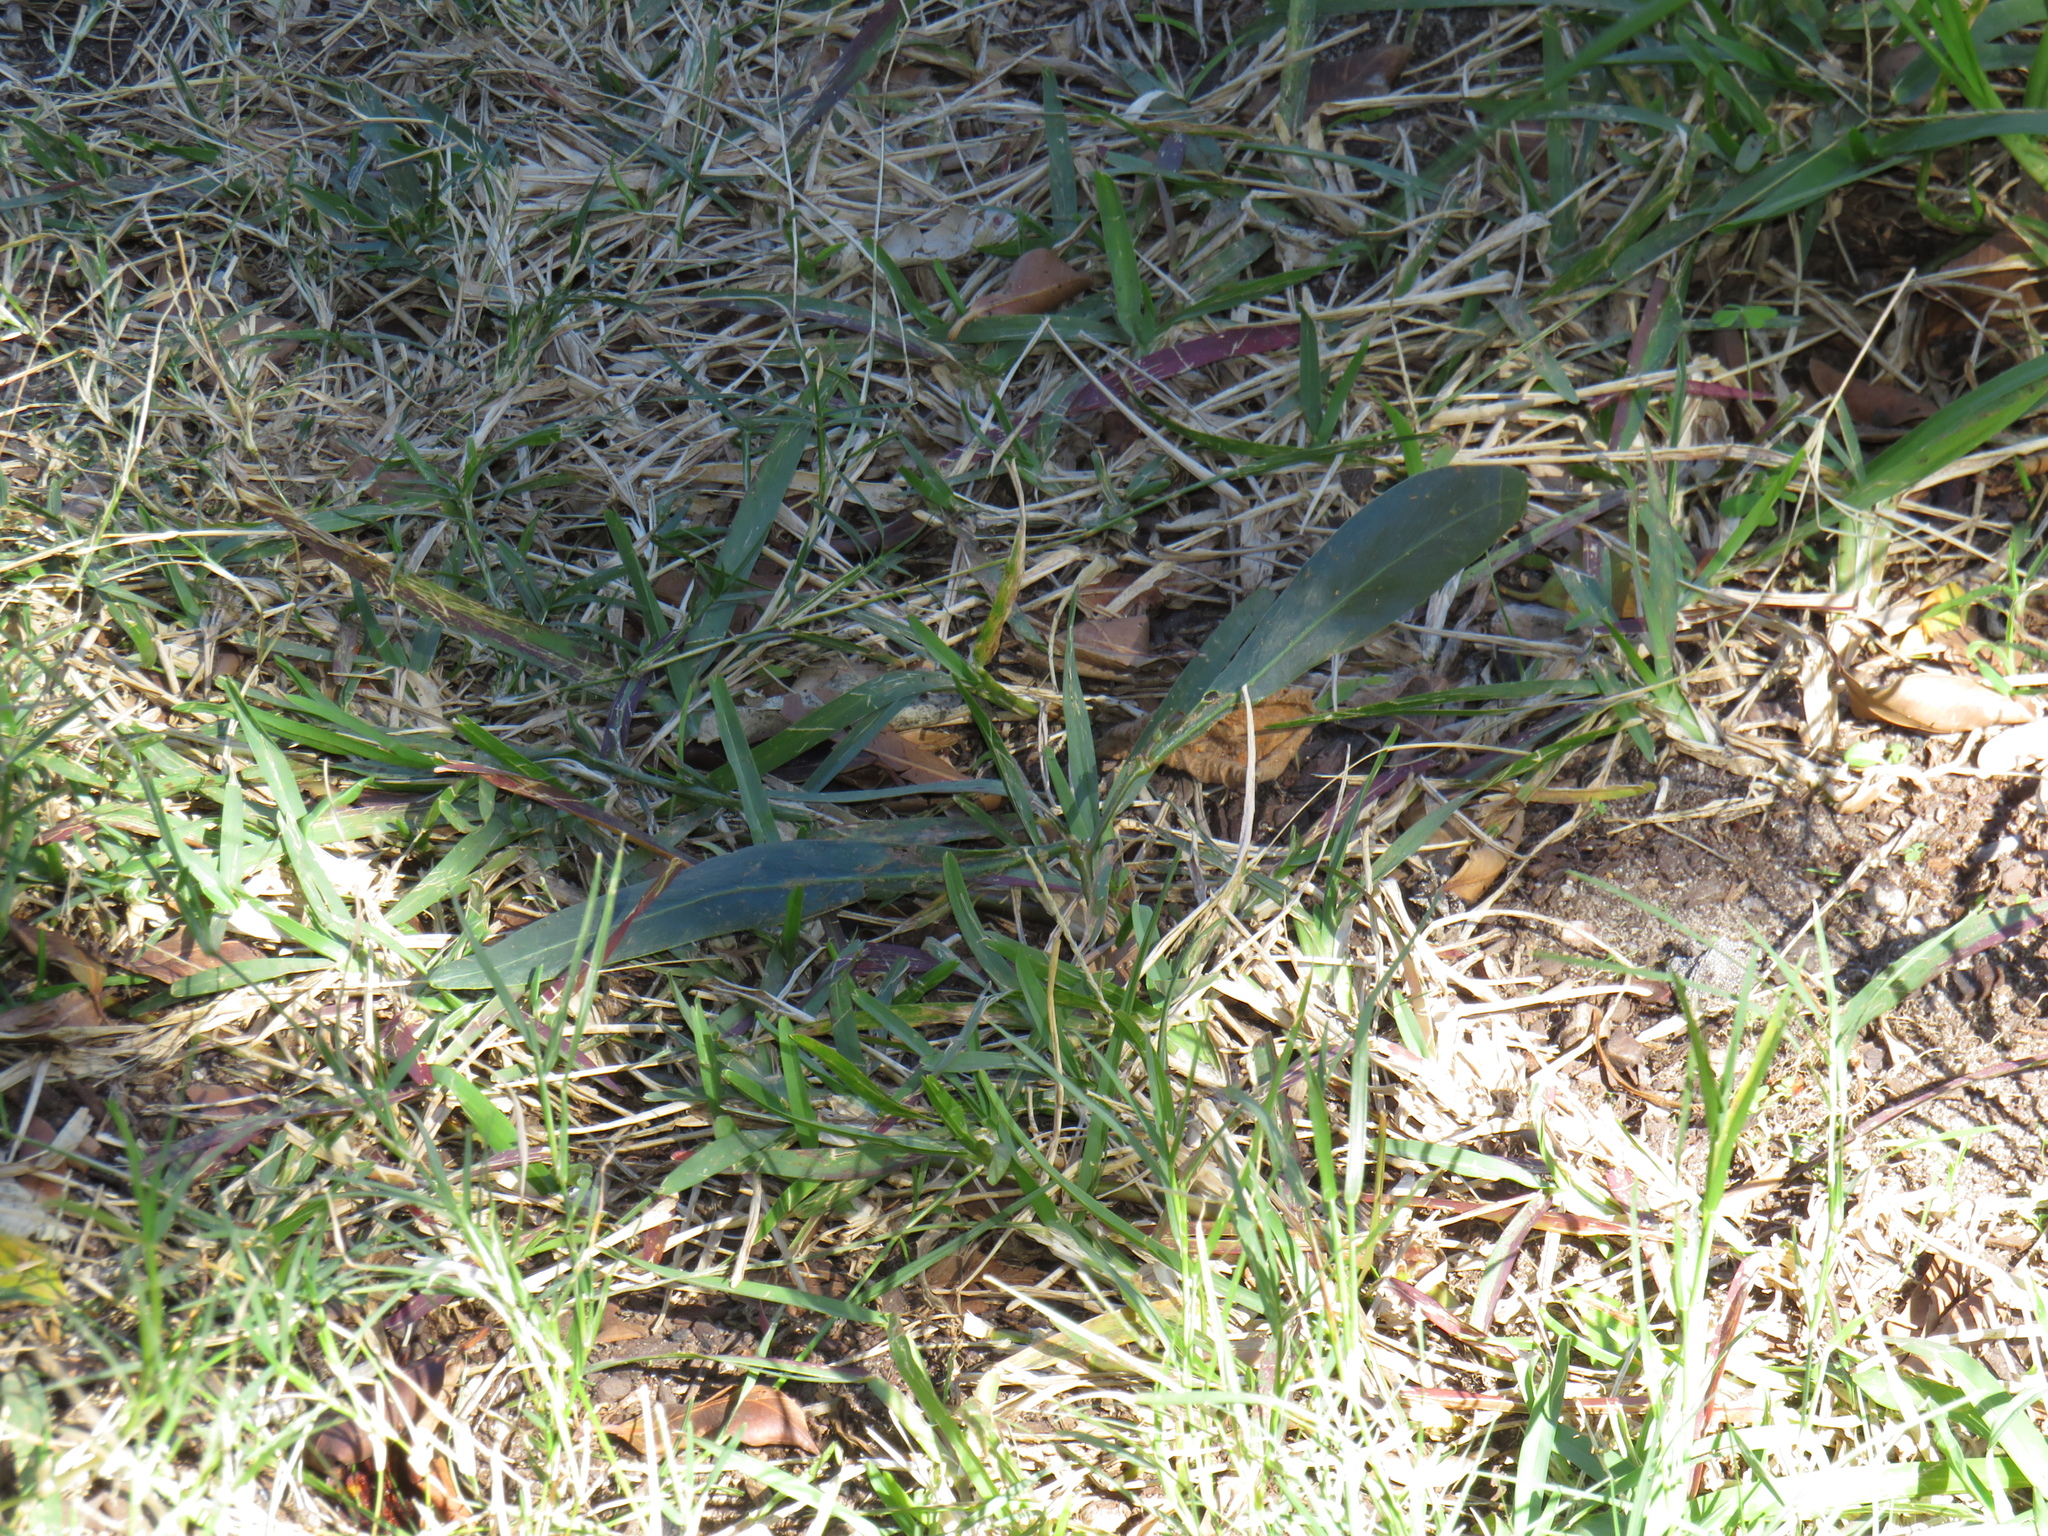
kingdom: Plantae
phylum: Tracheophyta
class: Magnoliopsida
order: Fabales
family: Fabaceae
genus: Acacia
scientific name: Acacia saligna
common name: Orange wattle
